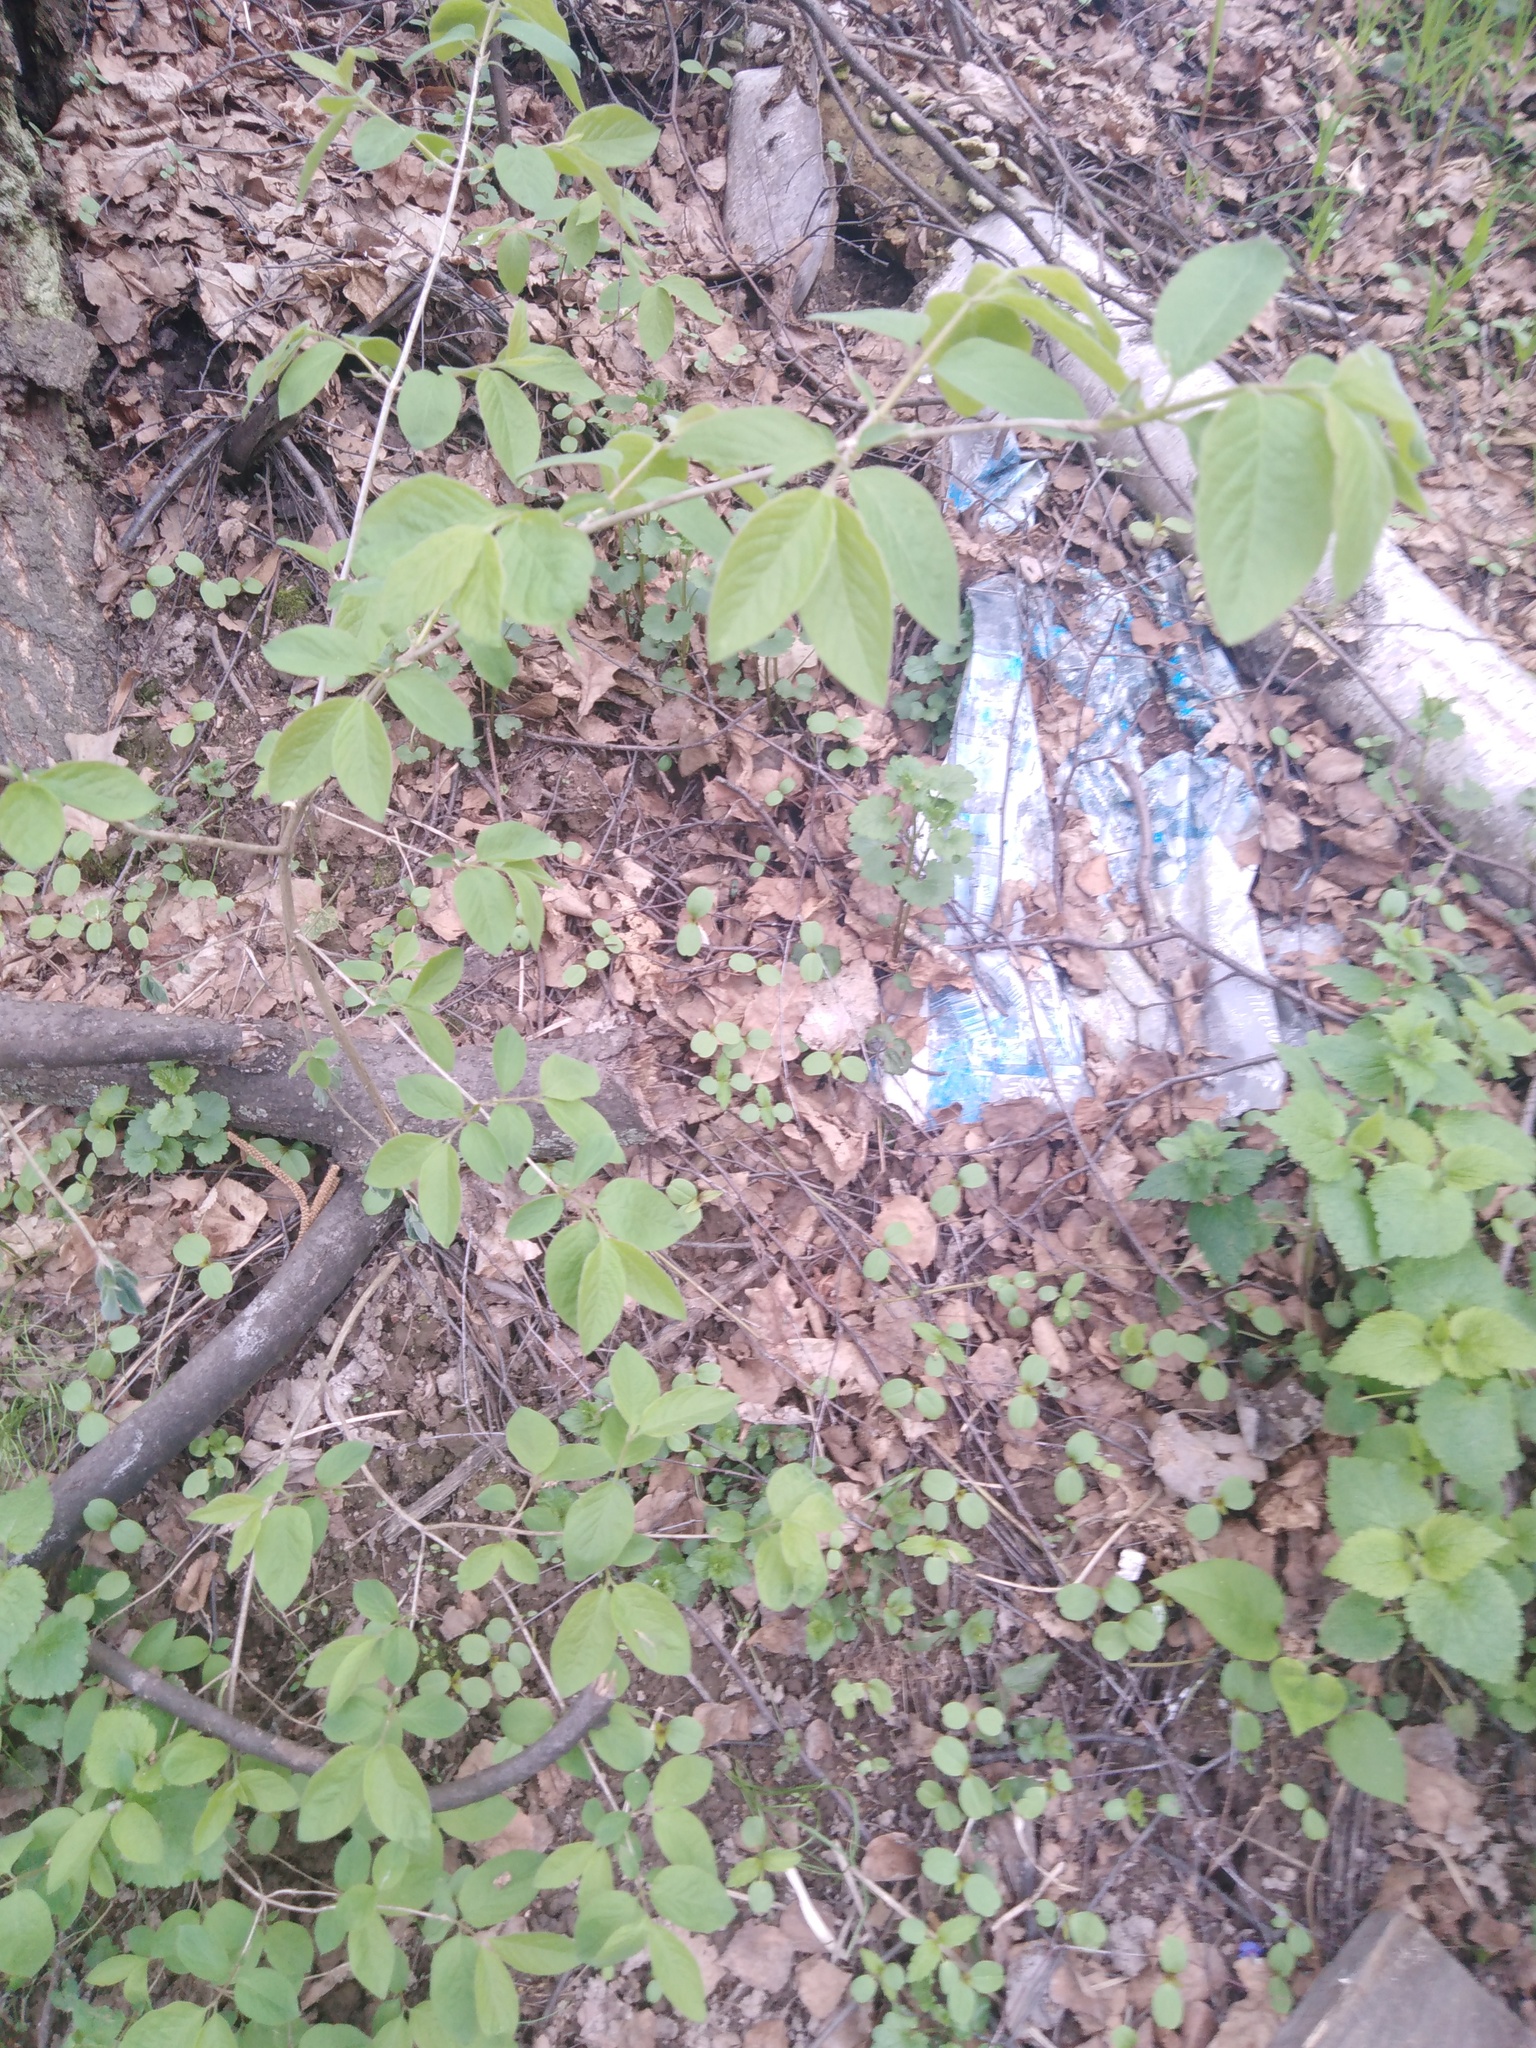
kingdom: Plantae
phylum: Tracheophyta
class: Magnoliopsida
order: Dipsacales
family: Caprifoliaceae
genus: Lonicera
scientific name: Lonicera xylosteum
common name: Fly honeysuckle
